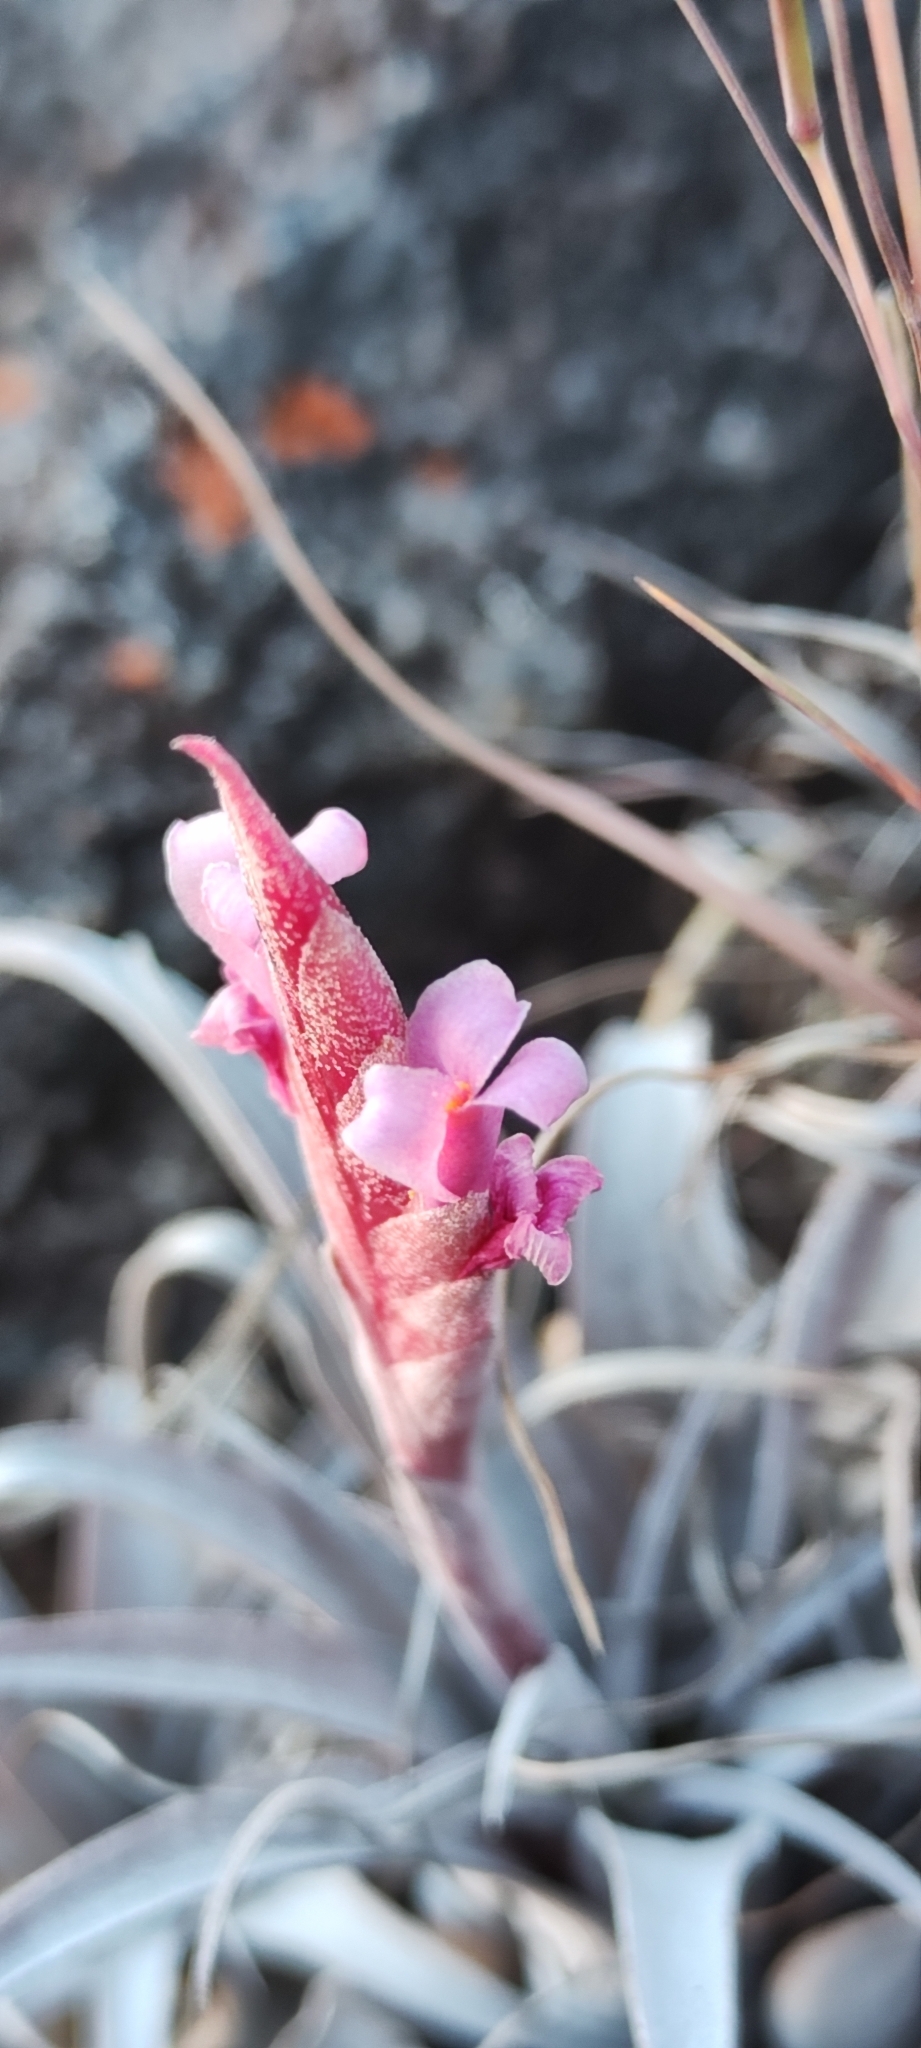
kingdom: Plantae
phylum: Tracheophyta
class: Liliopsida
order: Poales
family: Bromeliaceae
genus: Tillandsia
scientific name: Tillandsia macbrideana
